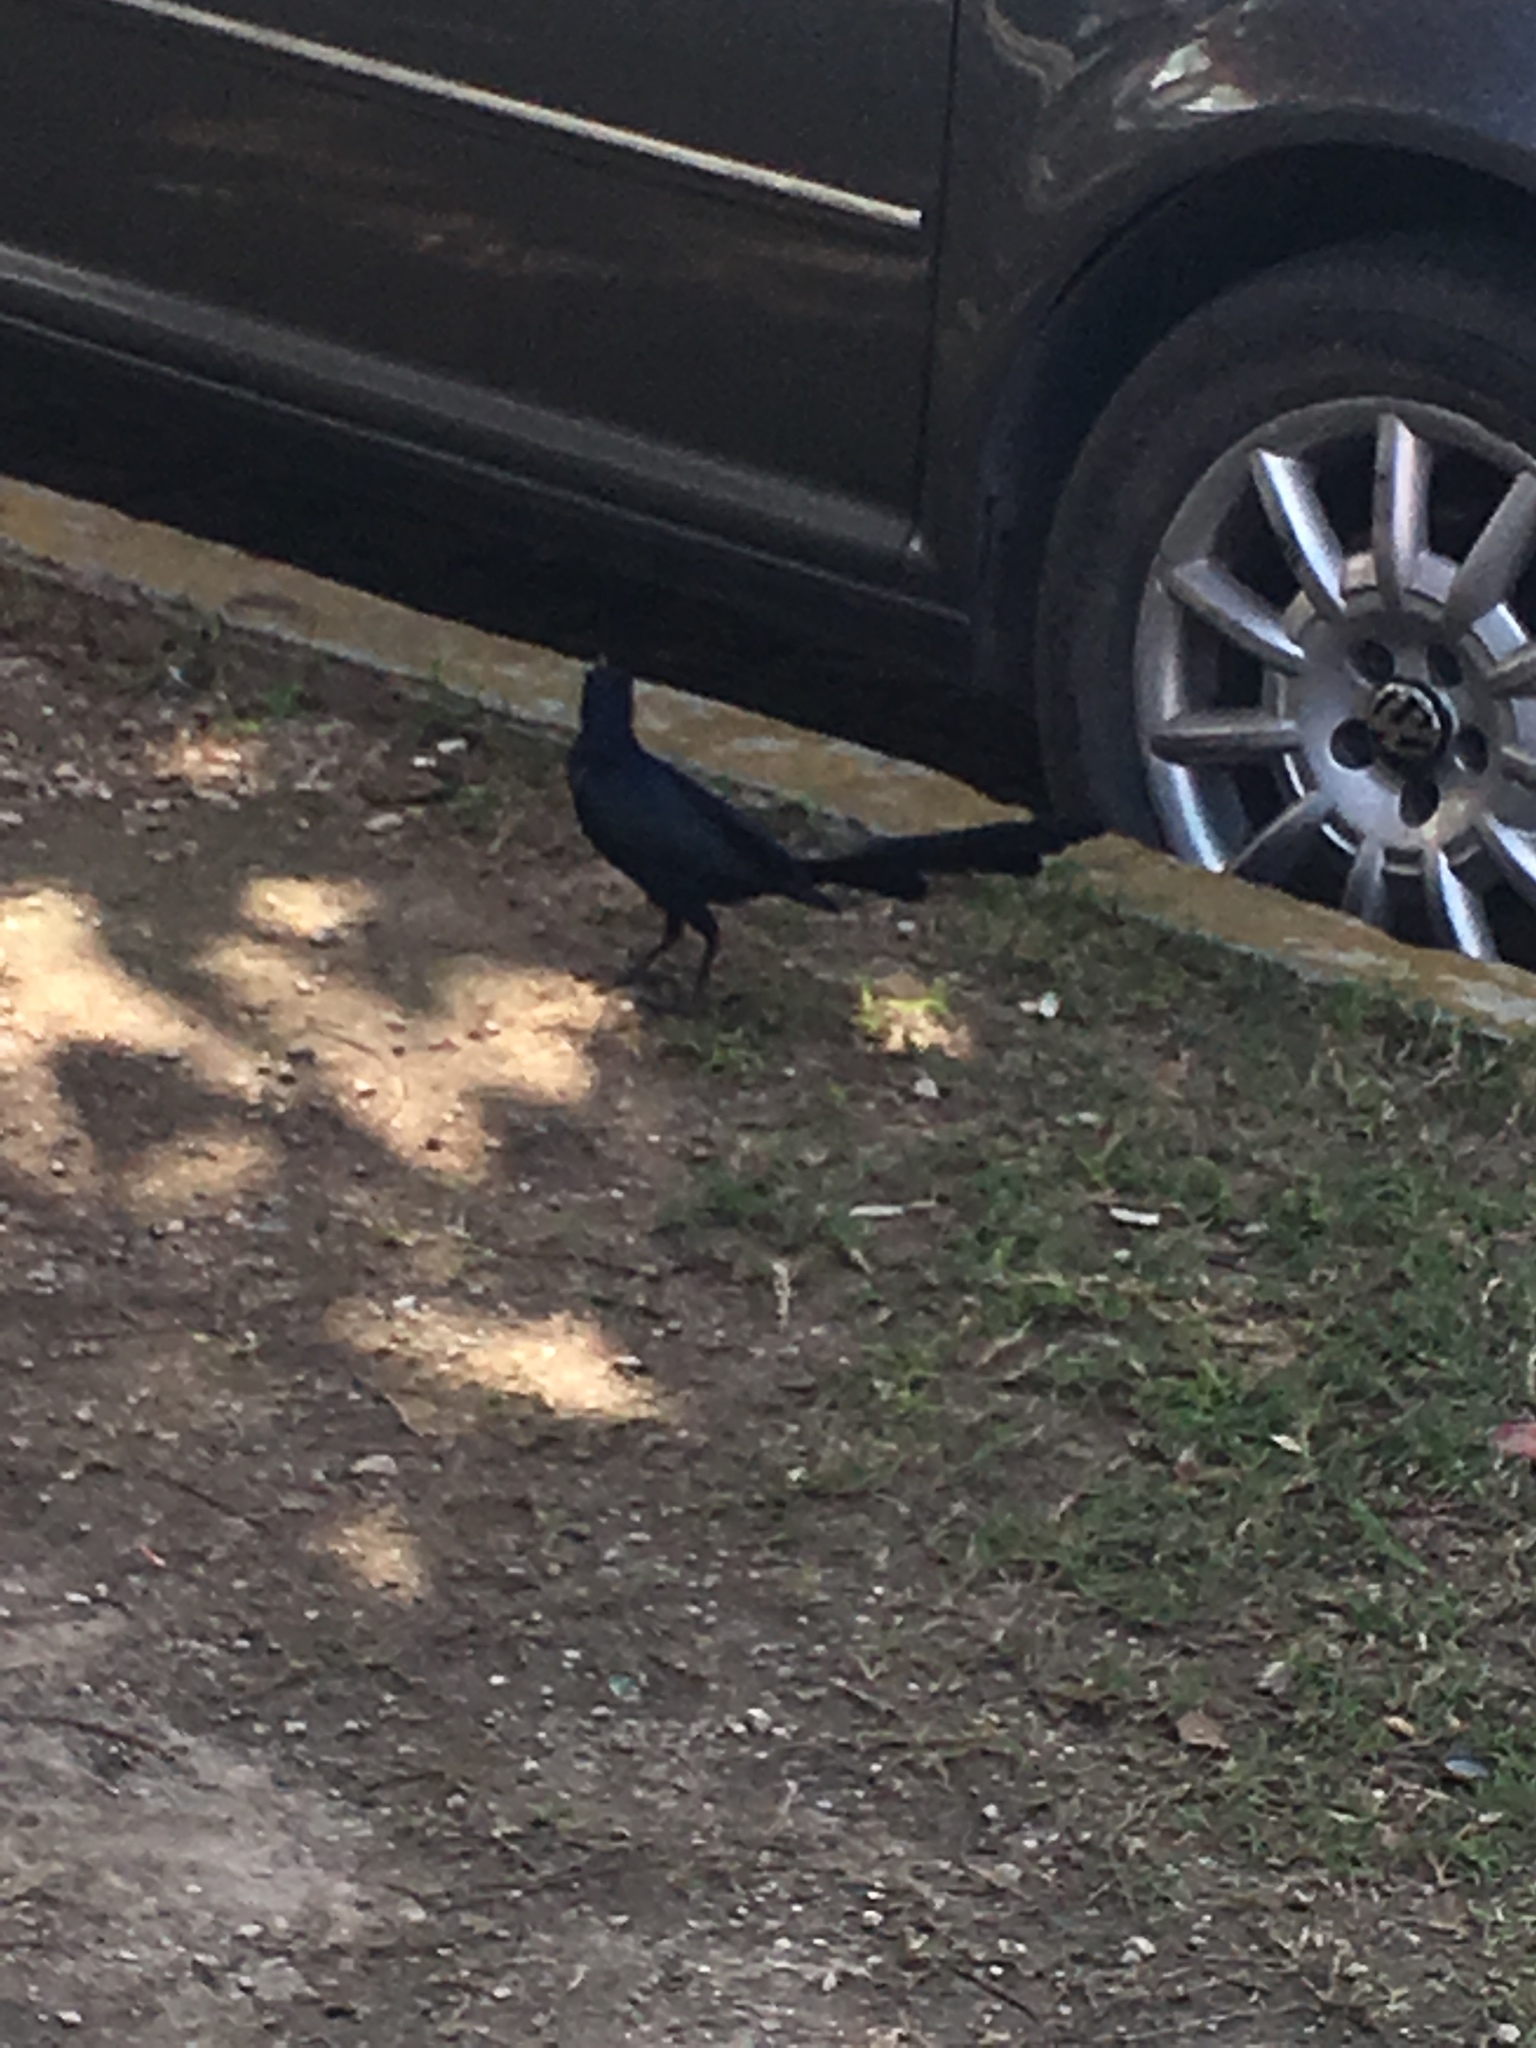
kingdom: Animalia
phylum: Chordata
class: Aves
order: Passeriformes
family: Icteridae
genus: Quiscalus
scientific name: Quiscalus mexicanus
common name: Great-tailed grackle
